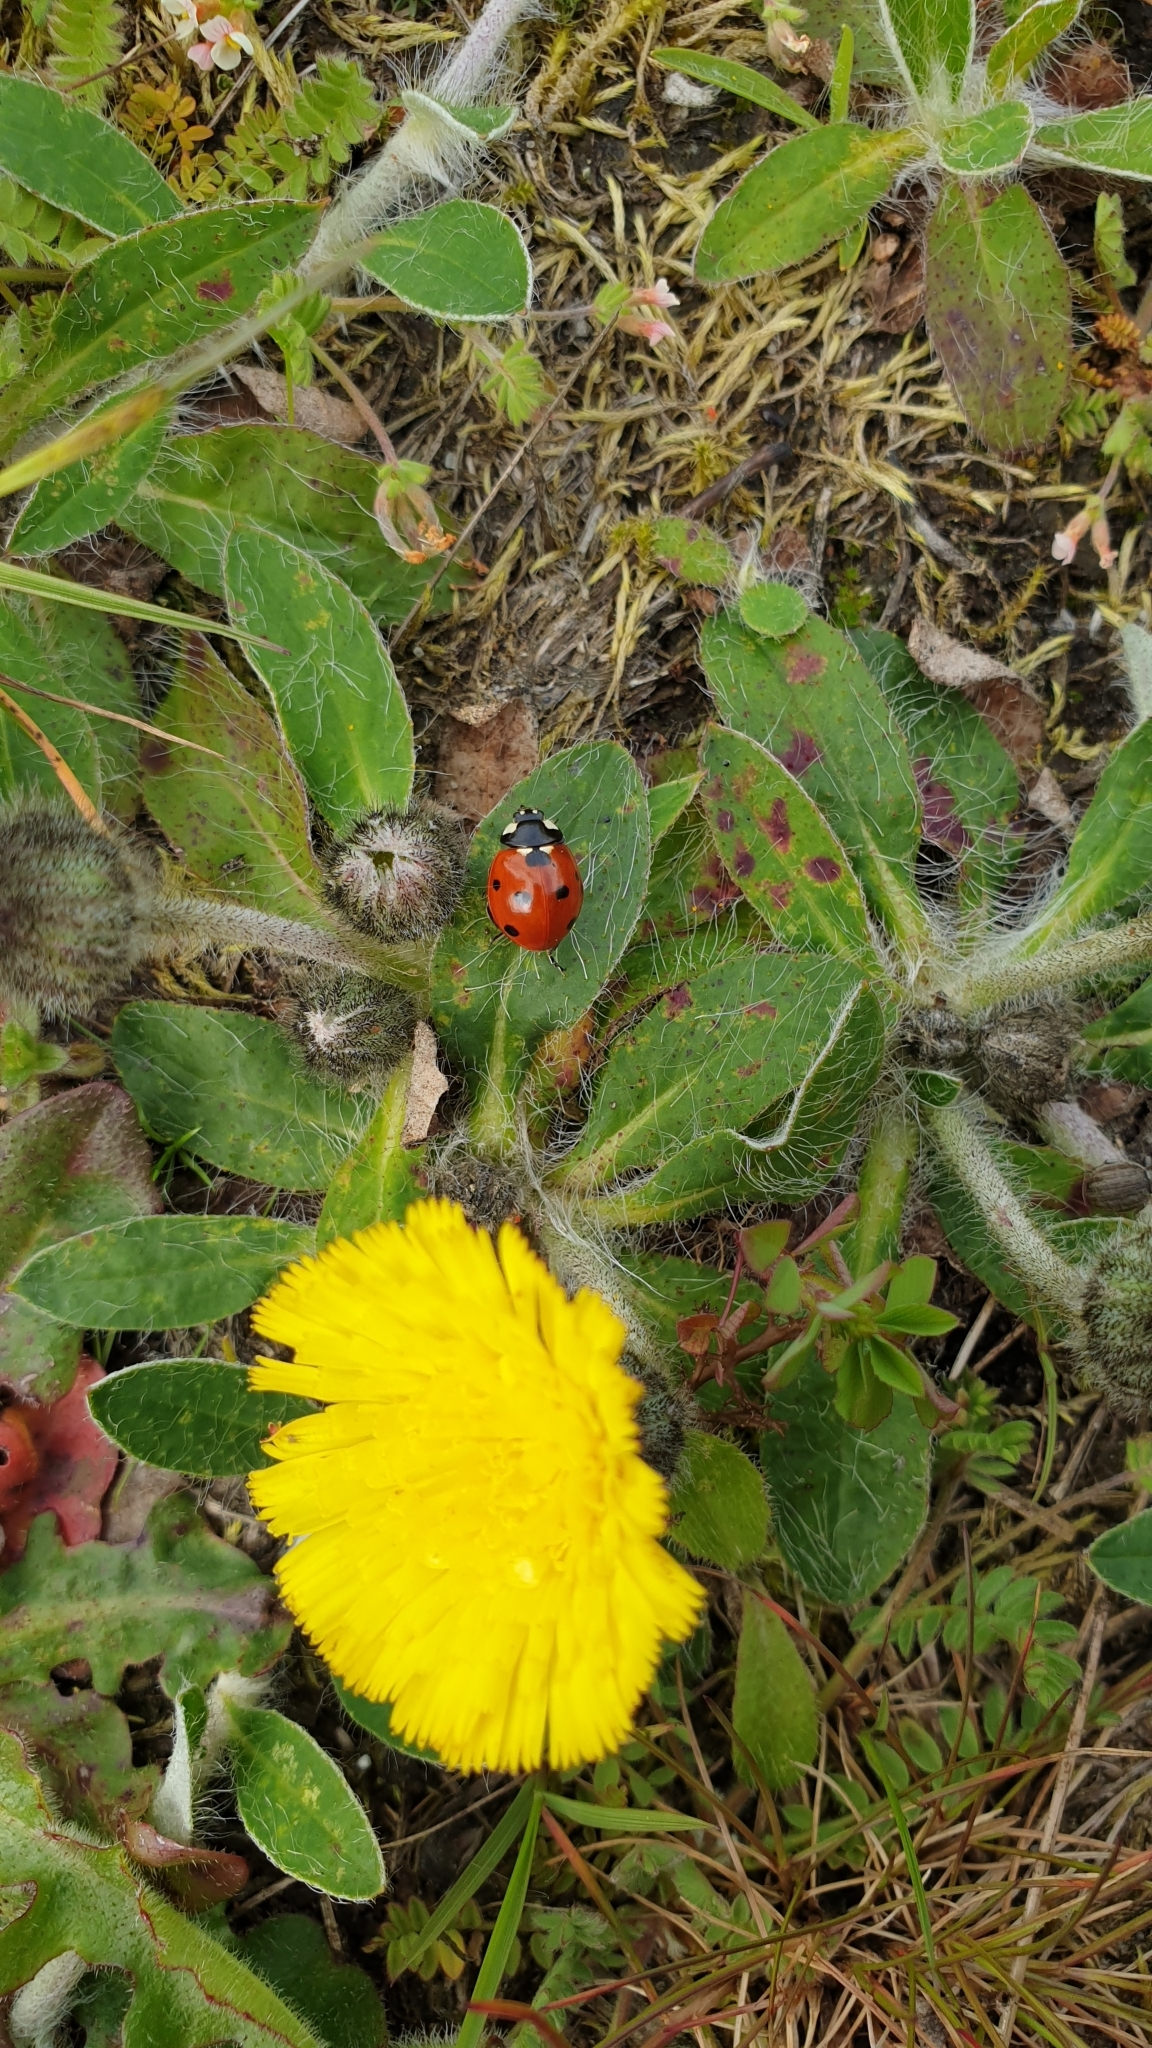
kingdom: Animalia
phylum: Arthropoda
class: Insecta
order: Coleoptera
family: Coccinellidae
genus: Coccinella
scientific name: Coccinella septempunctata
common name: Sevenspotted lady beetle
